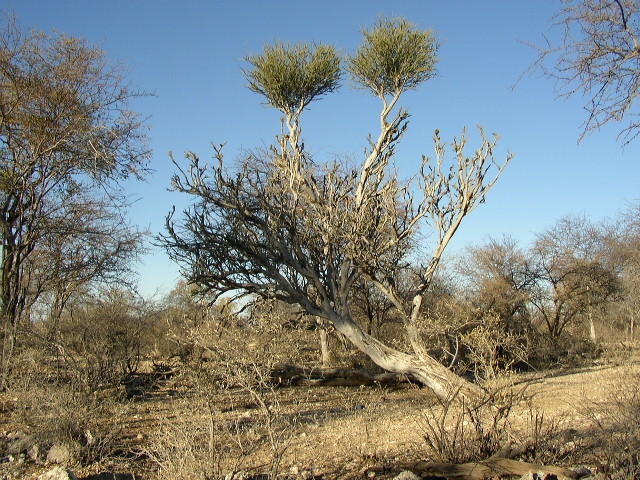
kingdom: Plantae
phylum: Tracheophyta
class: Magnoliopsida
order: Brassicales
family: Capparaceae
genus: Boscia
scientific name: Boscia foetida
